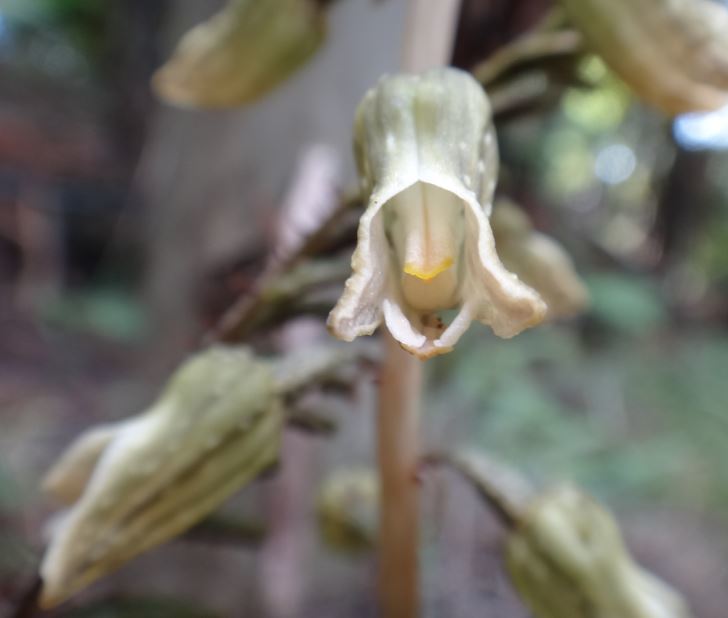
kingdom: Plantae
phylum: Tracheophyta
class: Liliopsida
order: Asparagales
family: Orchidaceae
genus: Gastrodia
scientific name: Gastrodia molloyi
